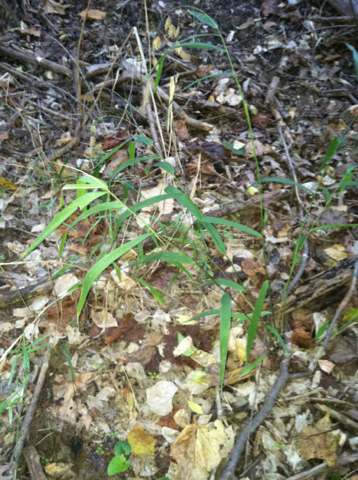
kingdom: Plantae
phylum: Tracheophyta
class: Liliopsida
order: Poales
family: Poaceae
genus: Chasmanthium
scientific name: Chasmanthium latifolium
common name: Broad-leaved chasmanthium
